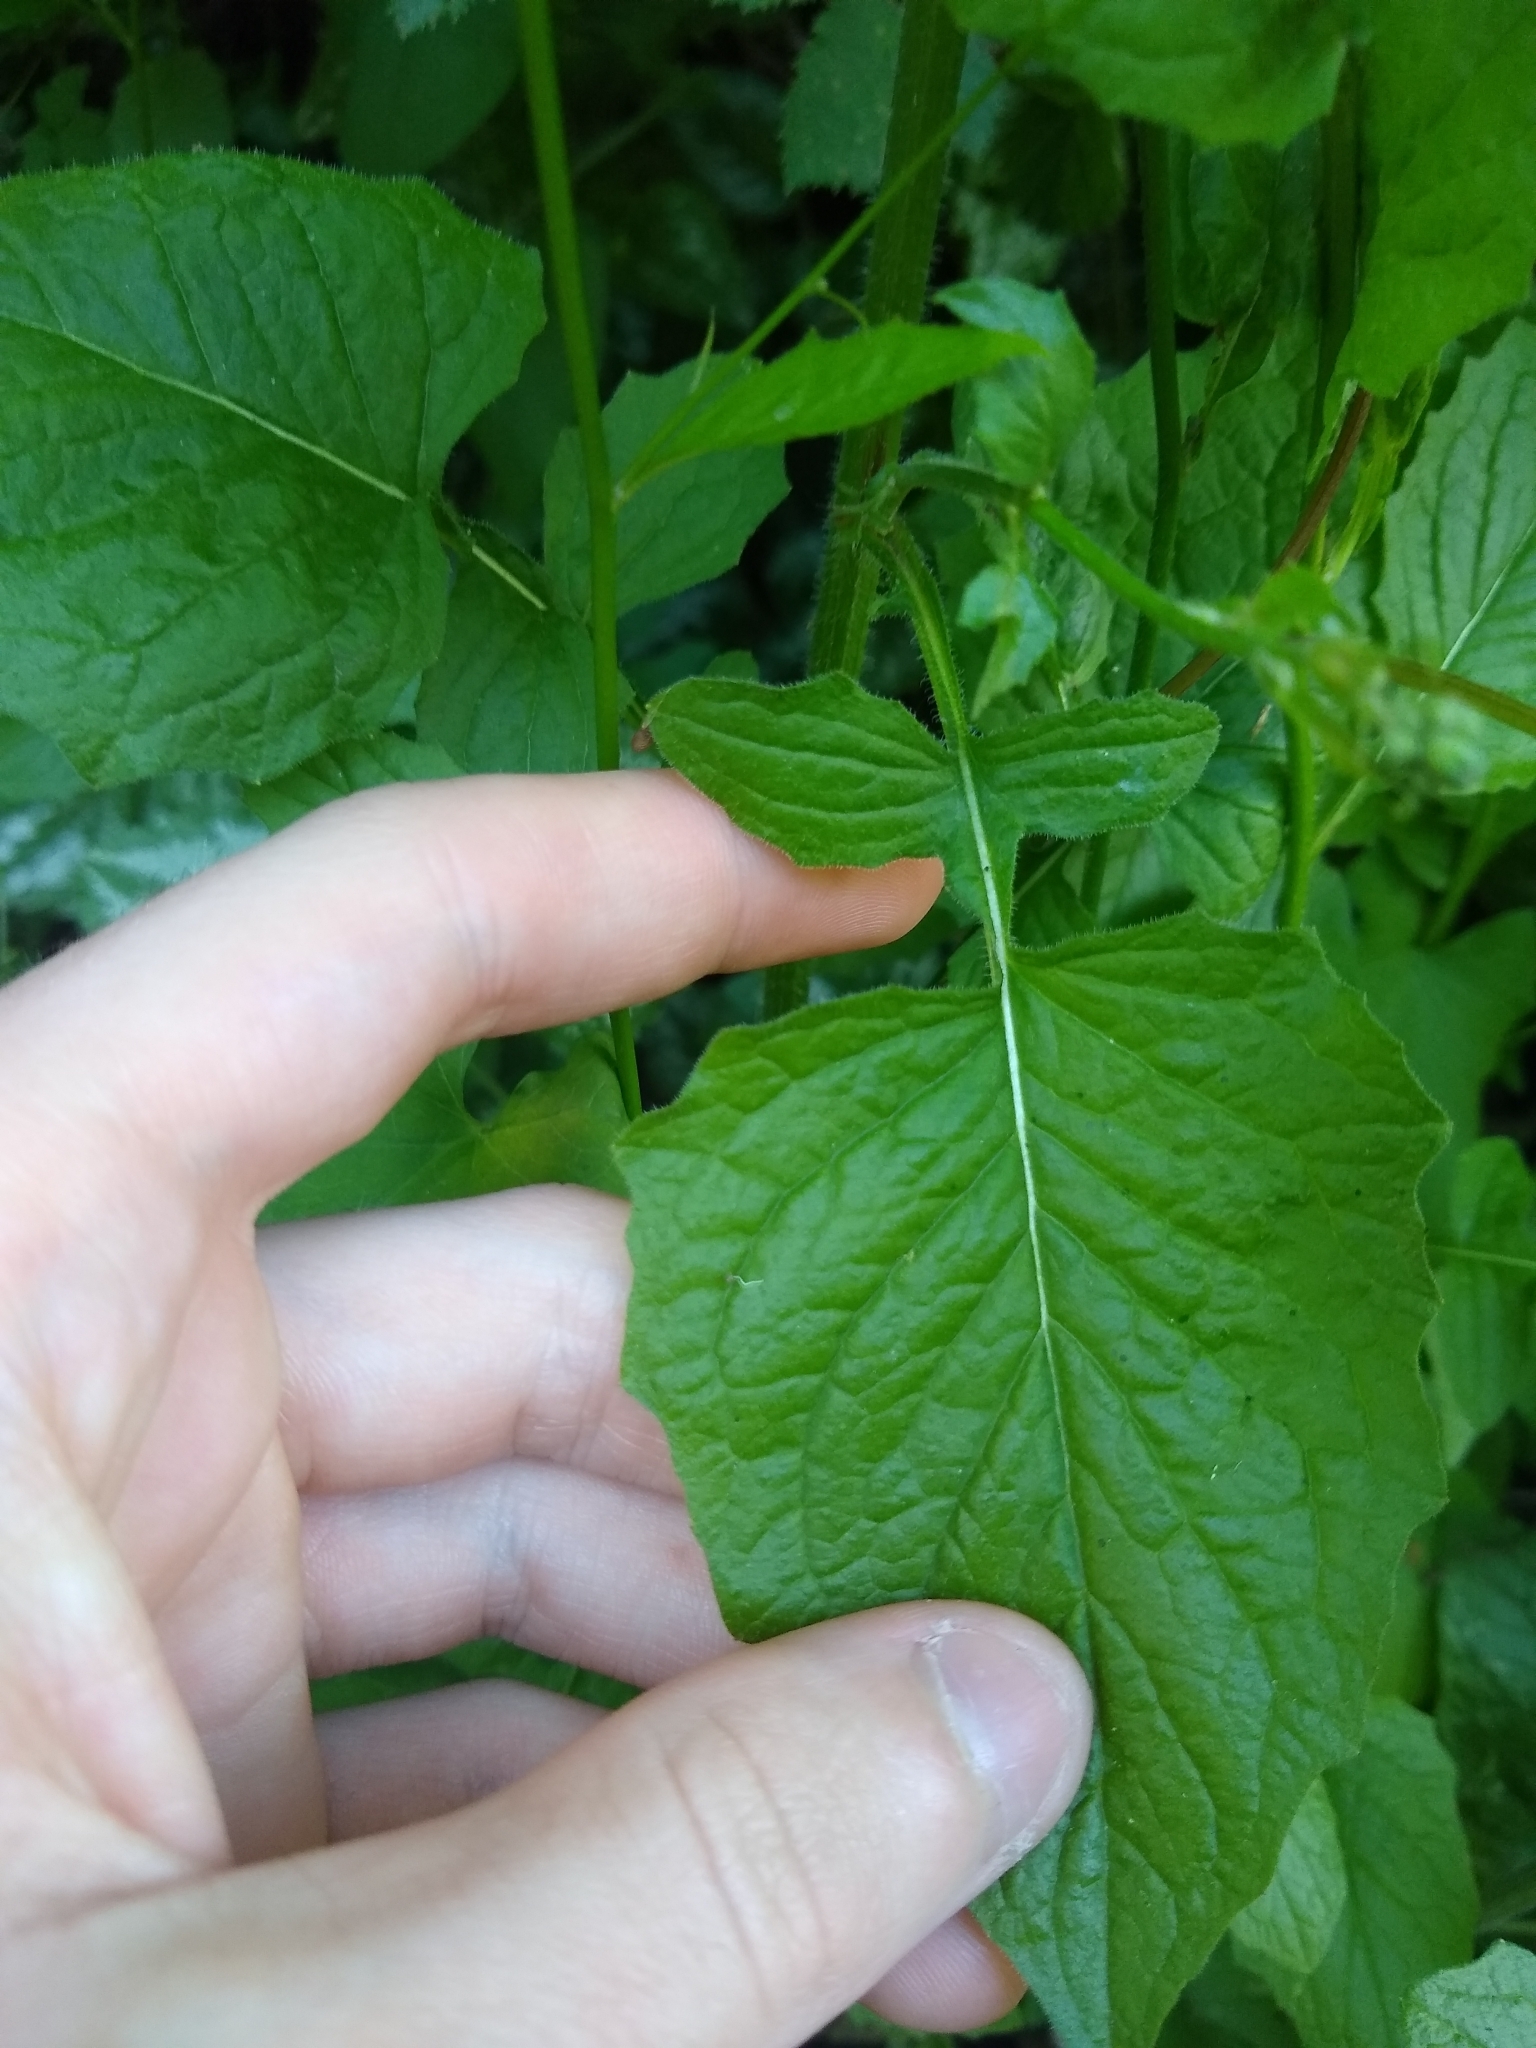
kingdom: Plantae
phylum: Tracheophyta
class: Magnoliopsida
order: Asterales
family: Asteraceae
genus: Lapsana
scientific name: Lapsana communis
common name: Nipplewort
